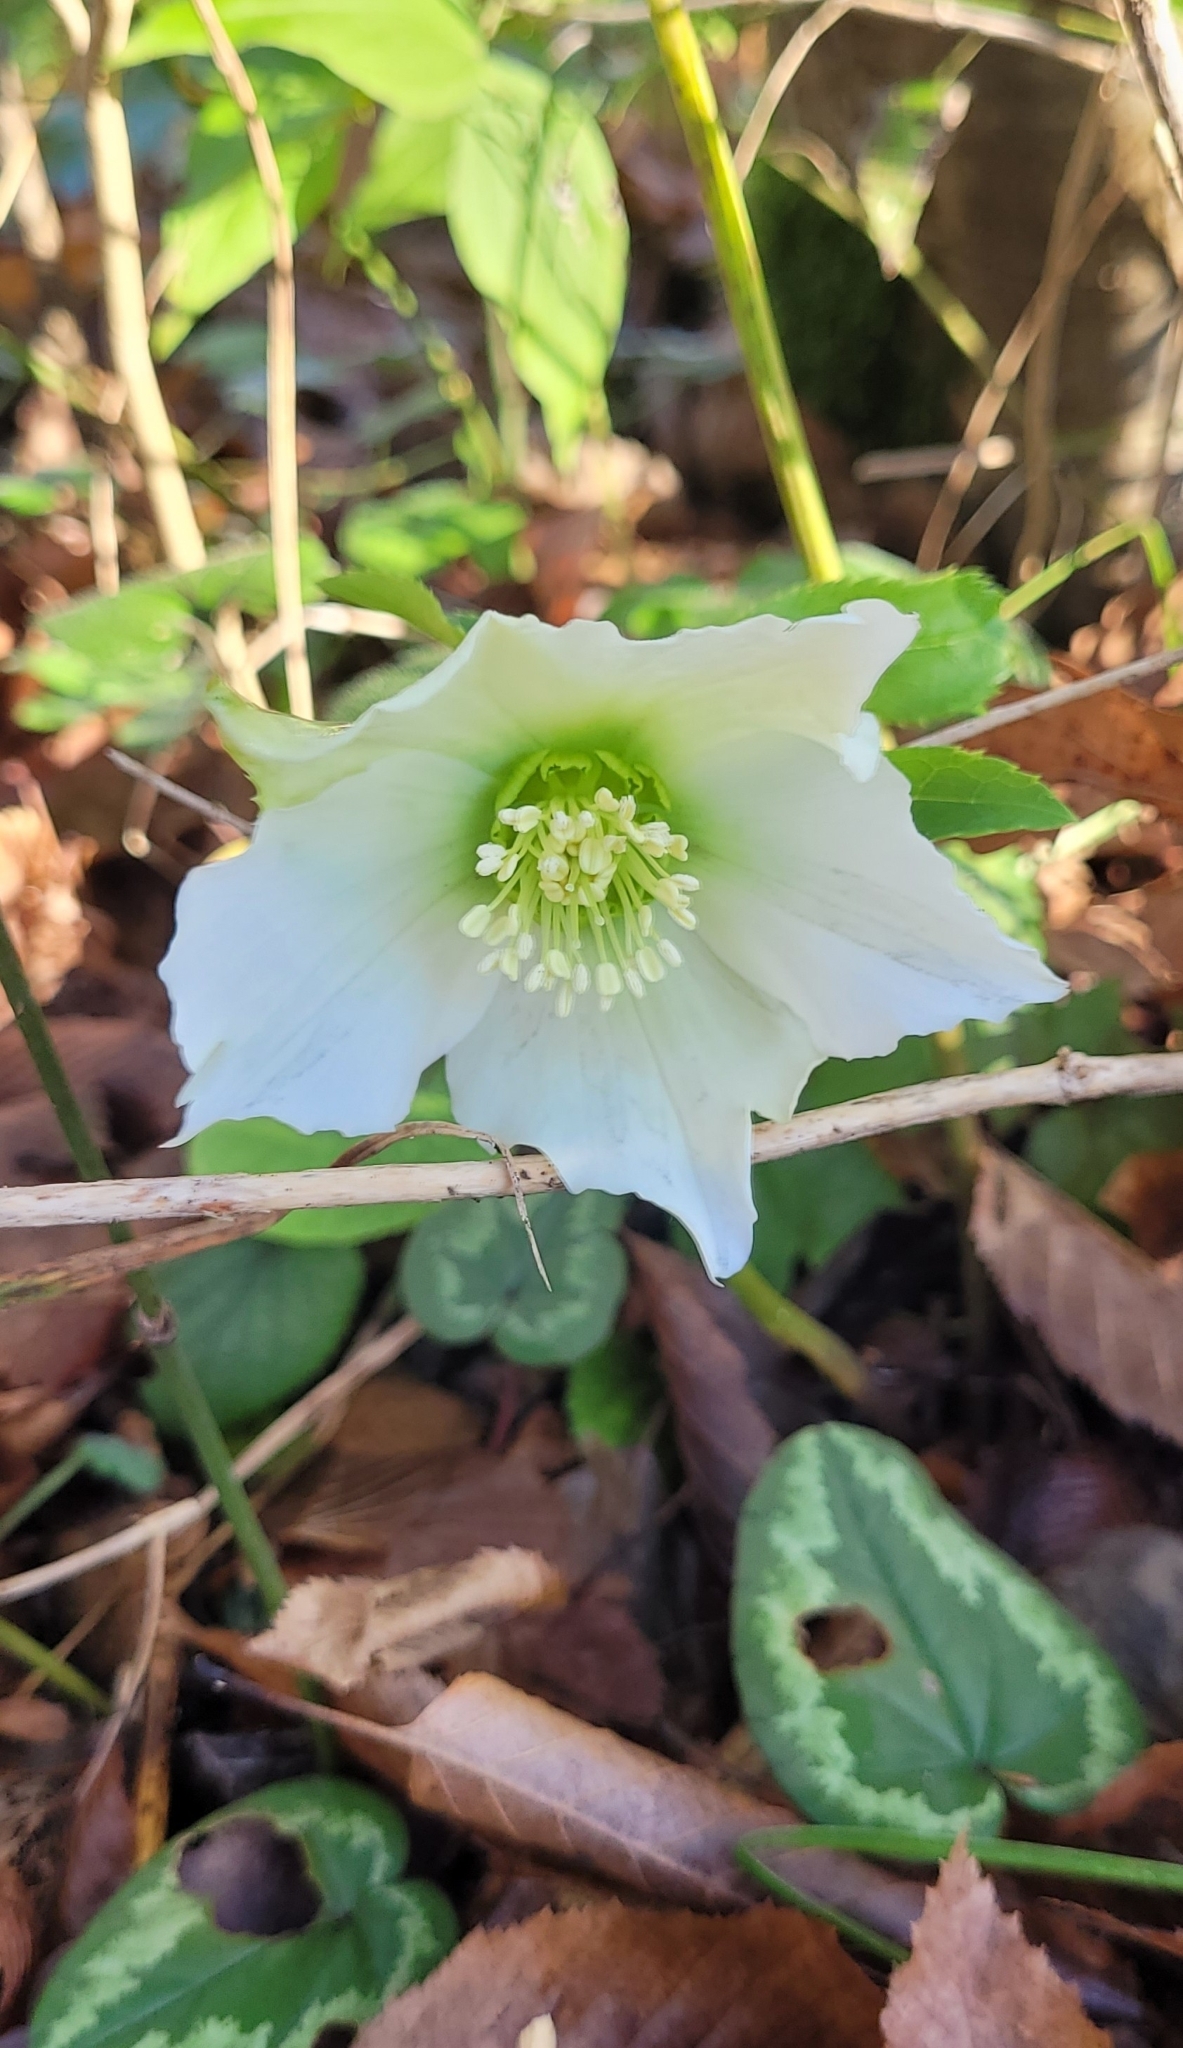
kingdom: Plantae
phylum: Tracheophyta
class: Magnoliopsida
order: Ranunculales
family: Ranunculaceae
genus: Helleborus
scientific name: Helleborus orientalis
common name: Lenten-rose
